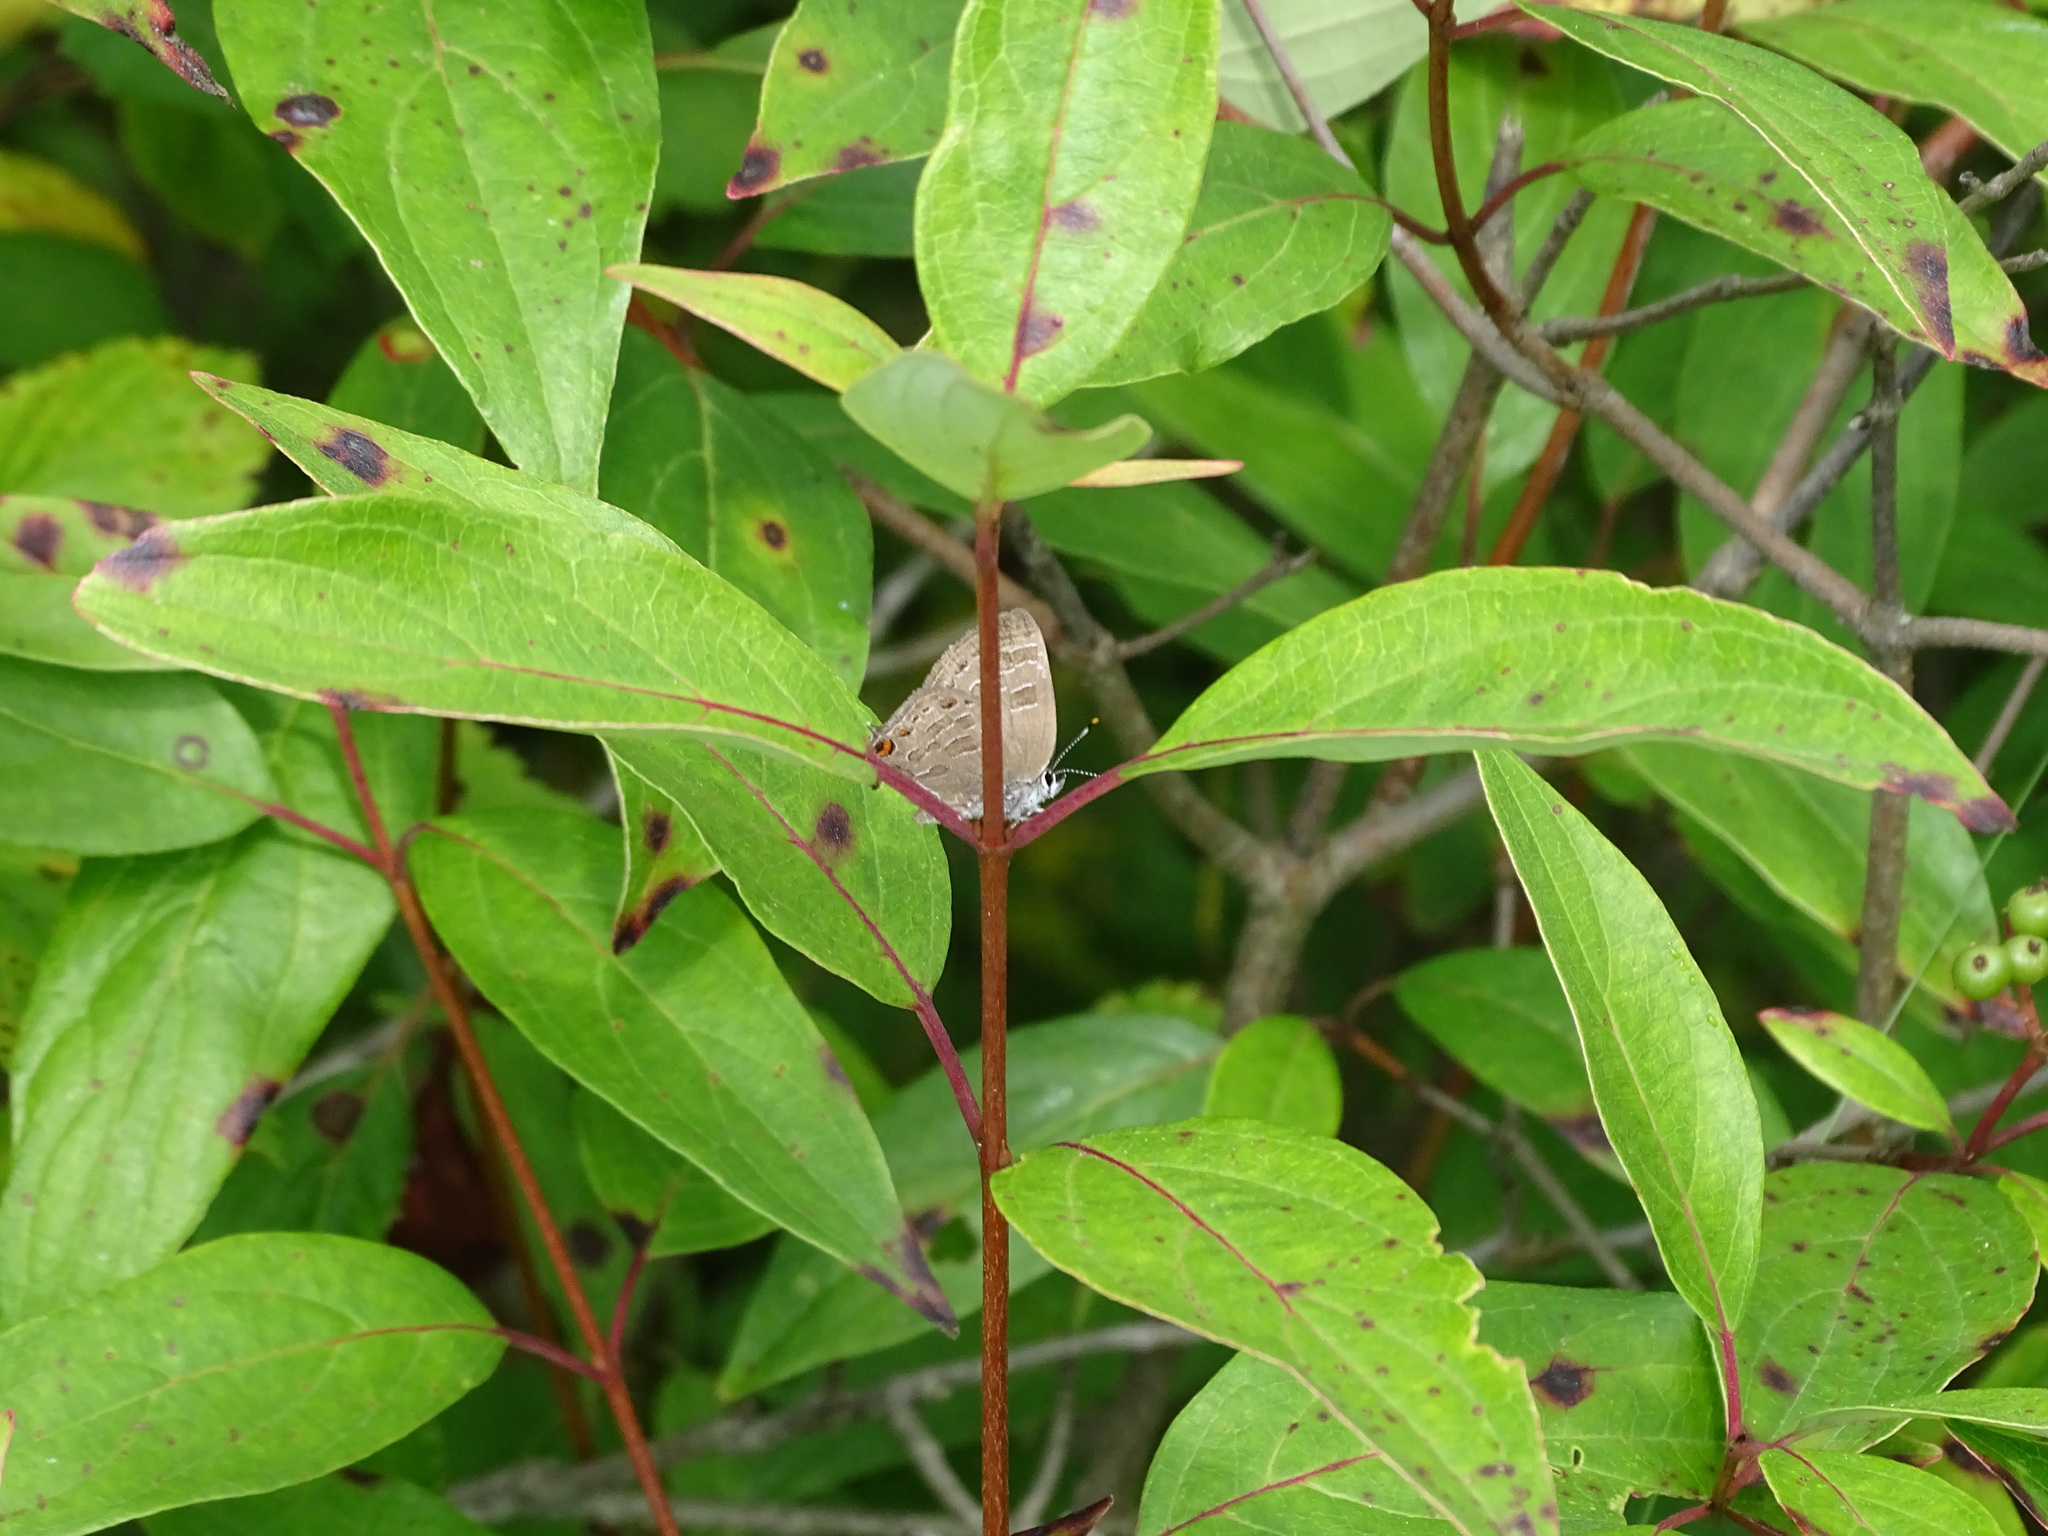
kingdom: Animalia
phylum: Arthropoda
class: Insecta
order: Lepidoptera
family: Lycaenidae
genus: Satyrium
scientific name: Satyrium liparops
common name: Striped hairstreak
